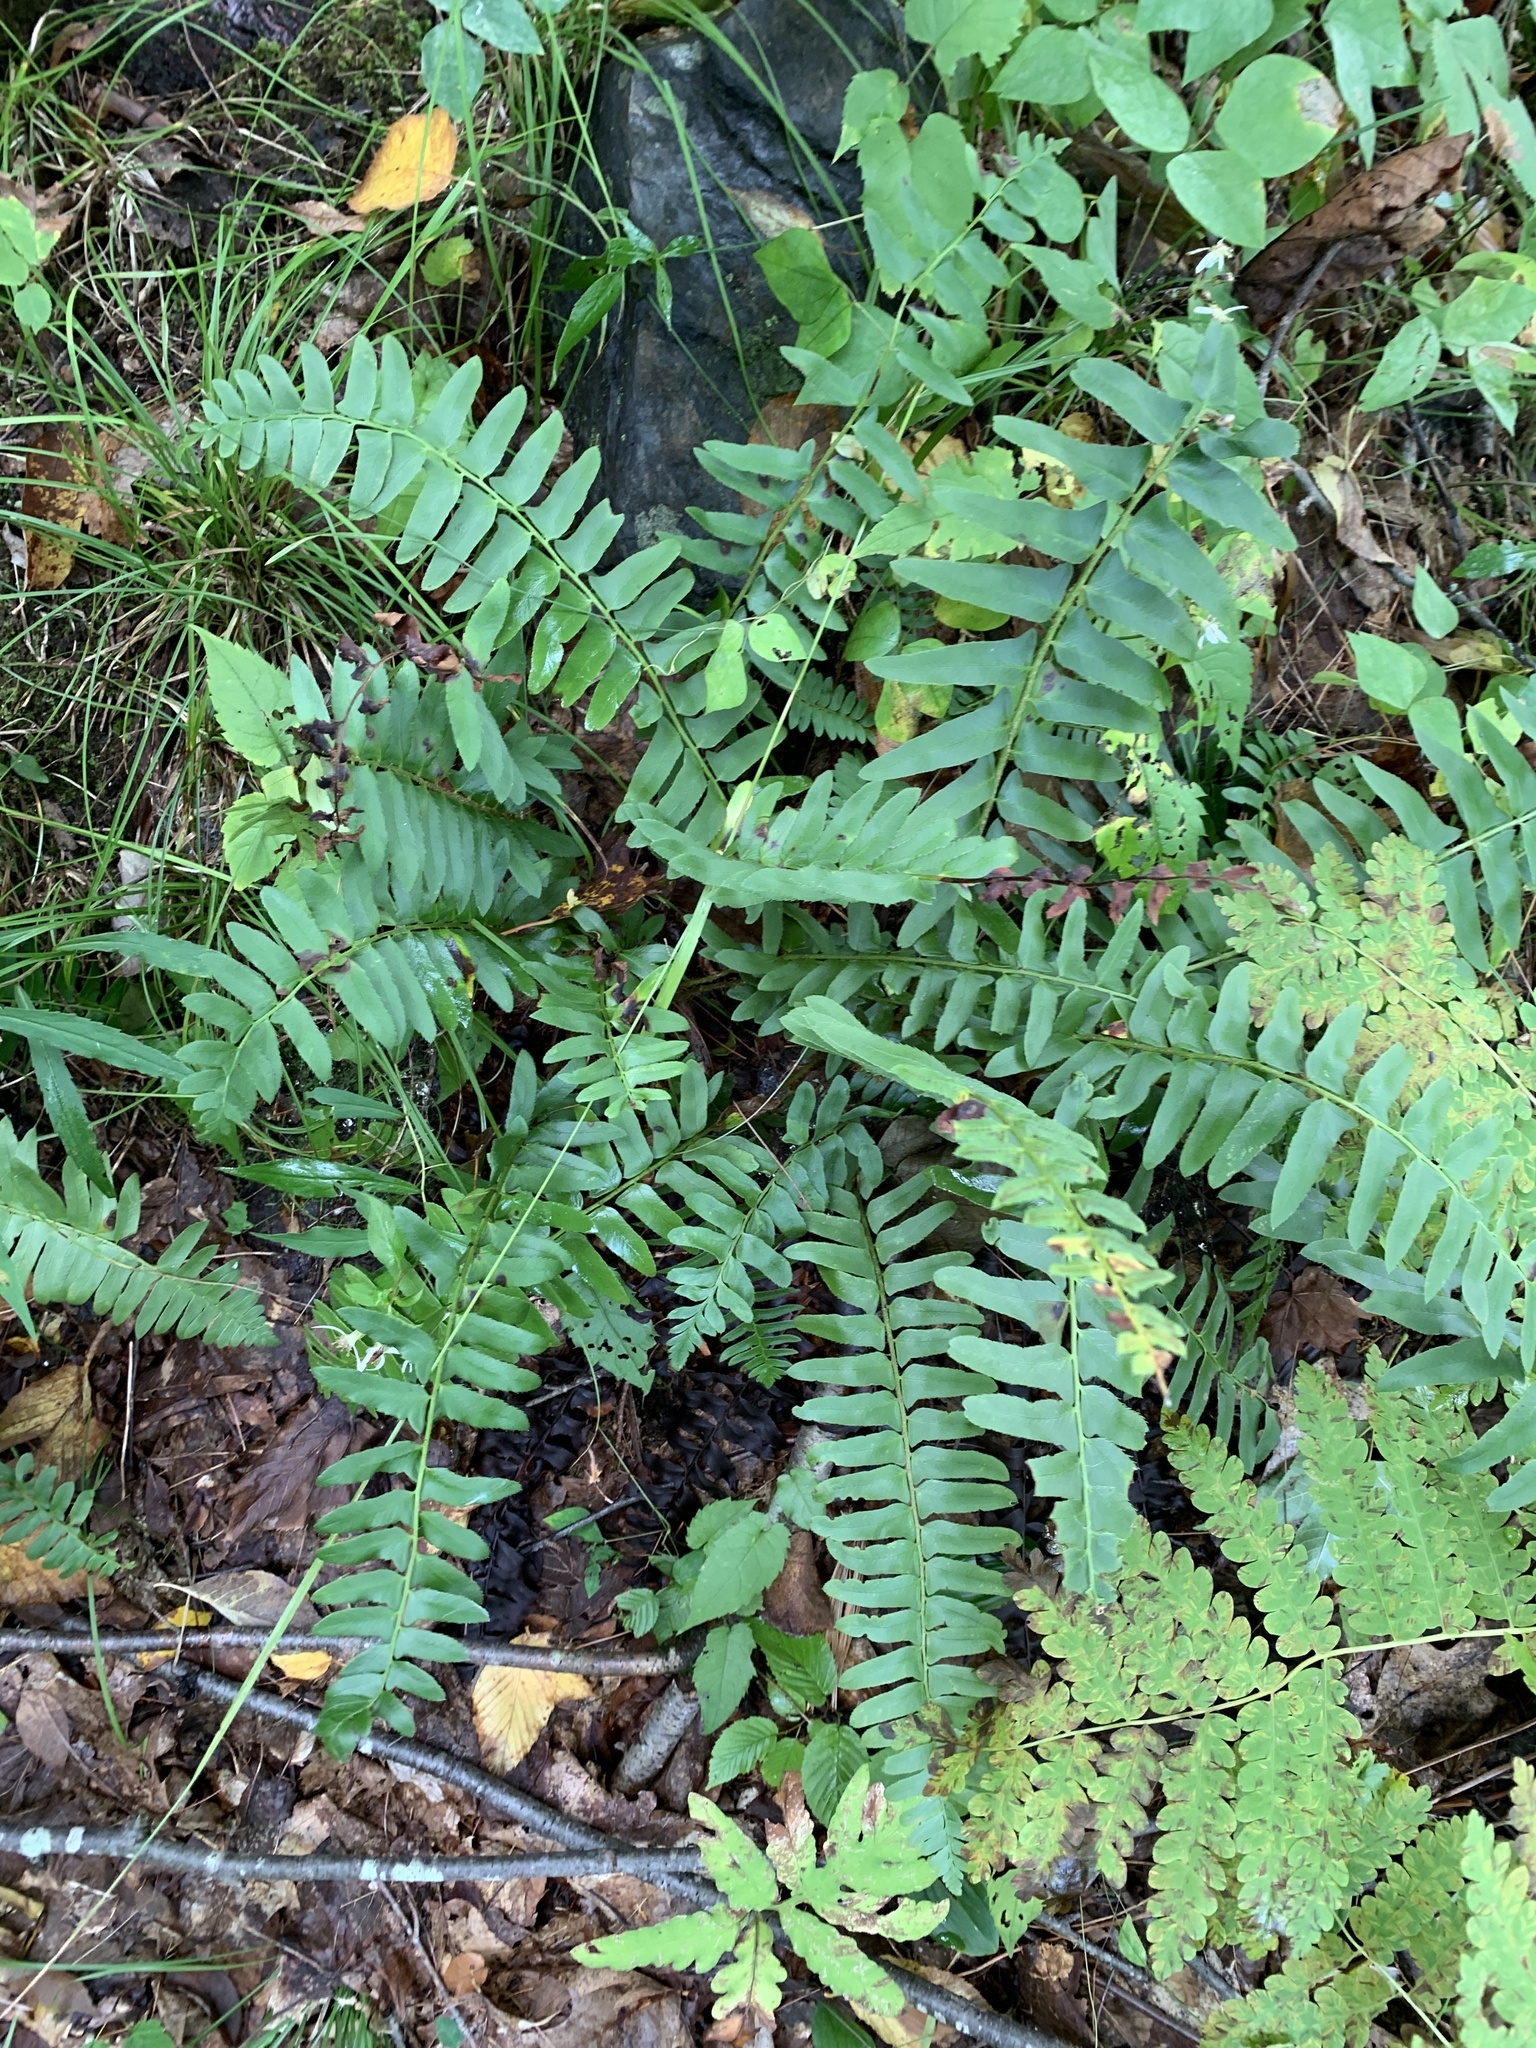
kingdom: Plantae
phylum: Tracheophyta
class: Polypodiopsida
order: Polypodiales
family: Dryopteridaceae
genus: Polystichum
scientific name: Polystichum acrostichoides
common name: Christmas fern
